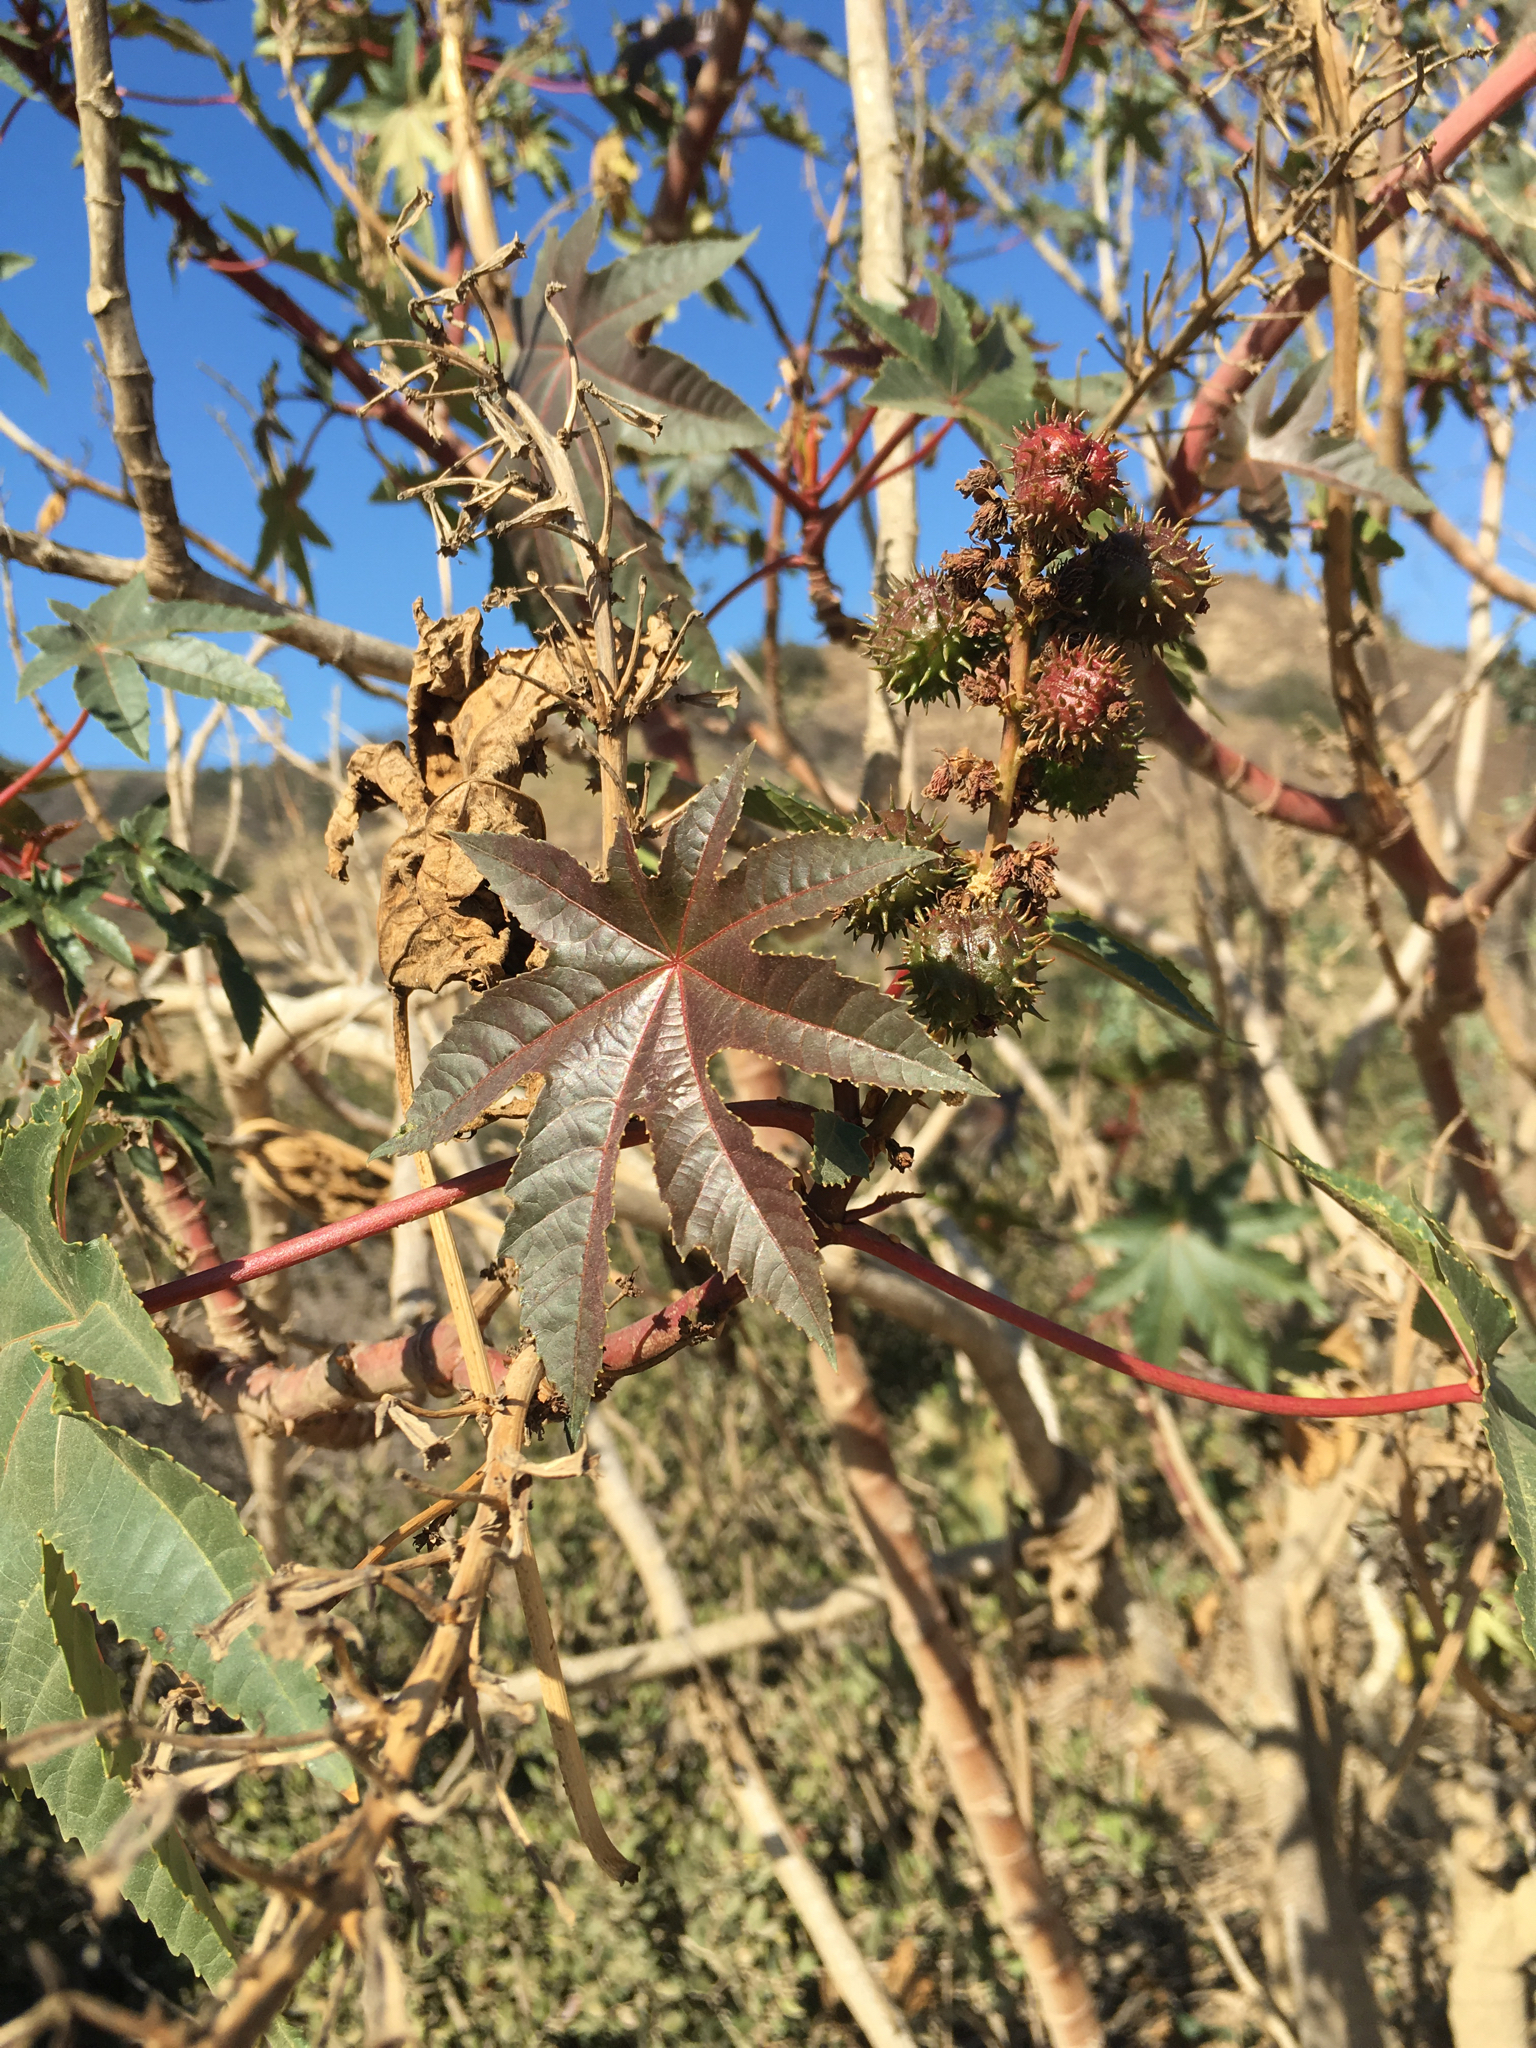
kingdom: Plantae
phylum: Tracheophyta
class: Magnoliopsida
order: Malpighiales
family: Euphorbiaceae
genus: Ricinus
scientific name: Ricinus communis
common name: Castor-oil-plant
